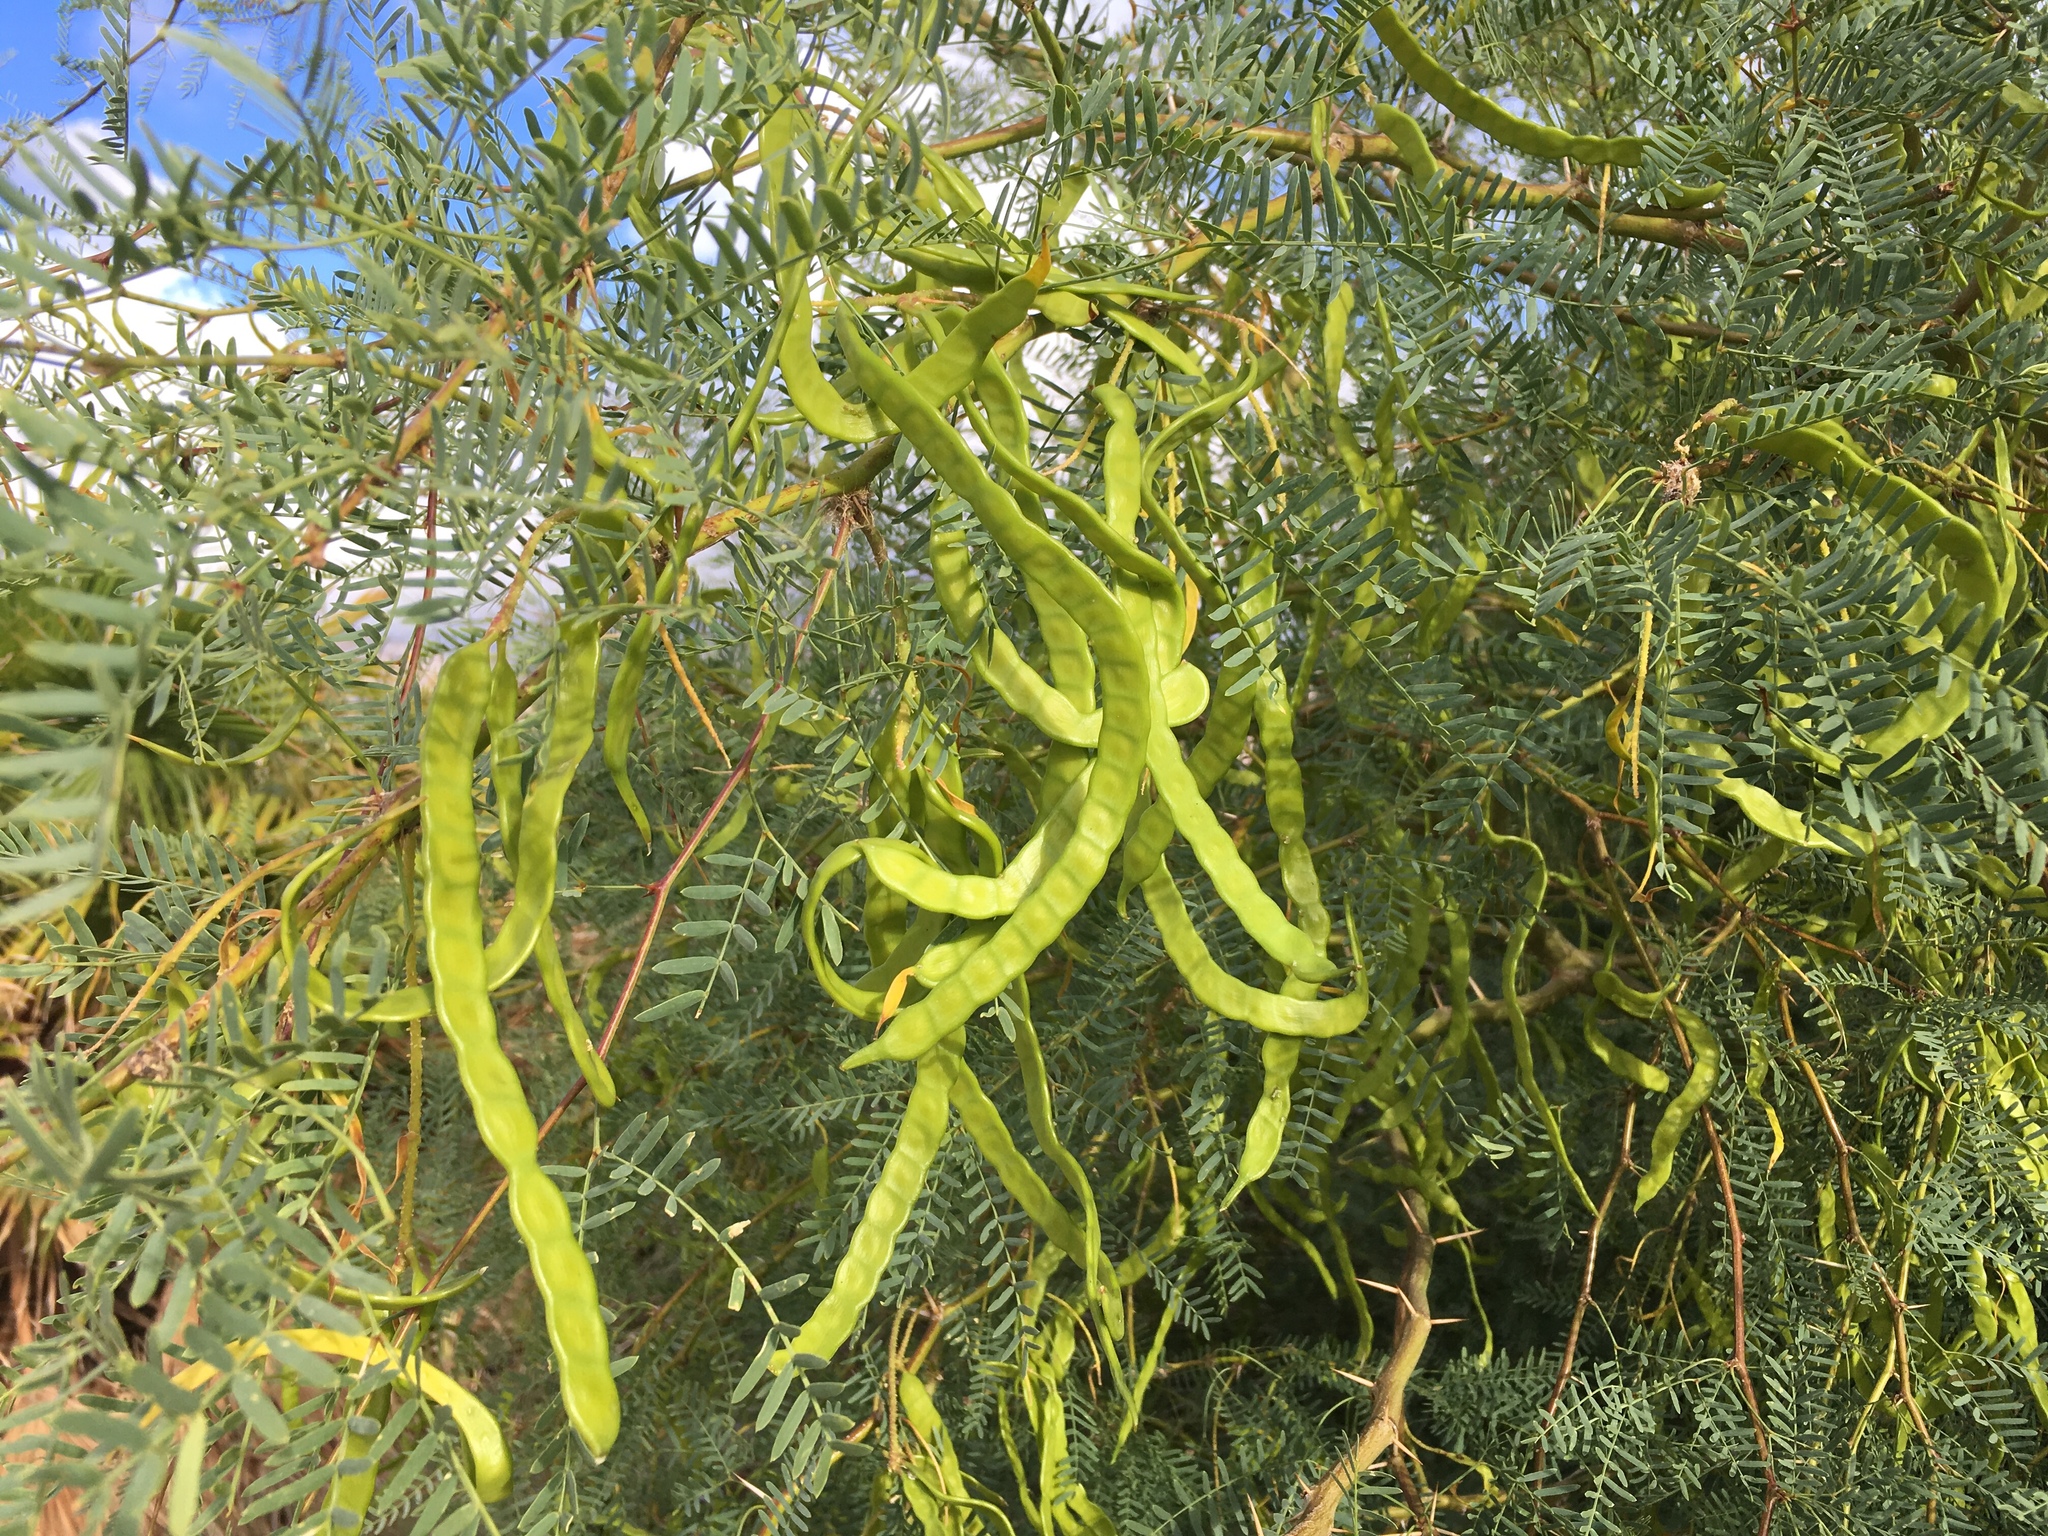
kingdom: Plantae
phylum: Tracheophyta
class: Magnoliopsida
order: Fabales
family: Fabaceae
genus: Prosopis
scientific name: Prosopis pubescens
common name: Screw-bean
